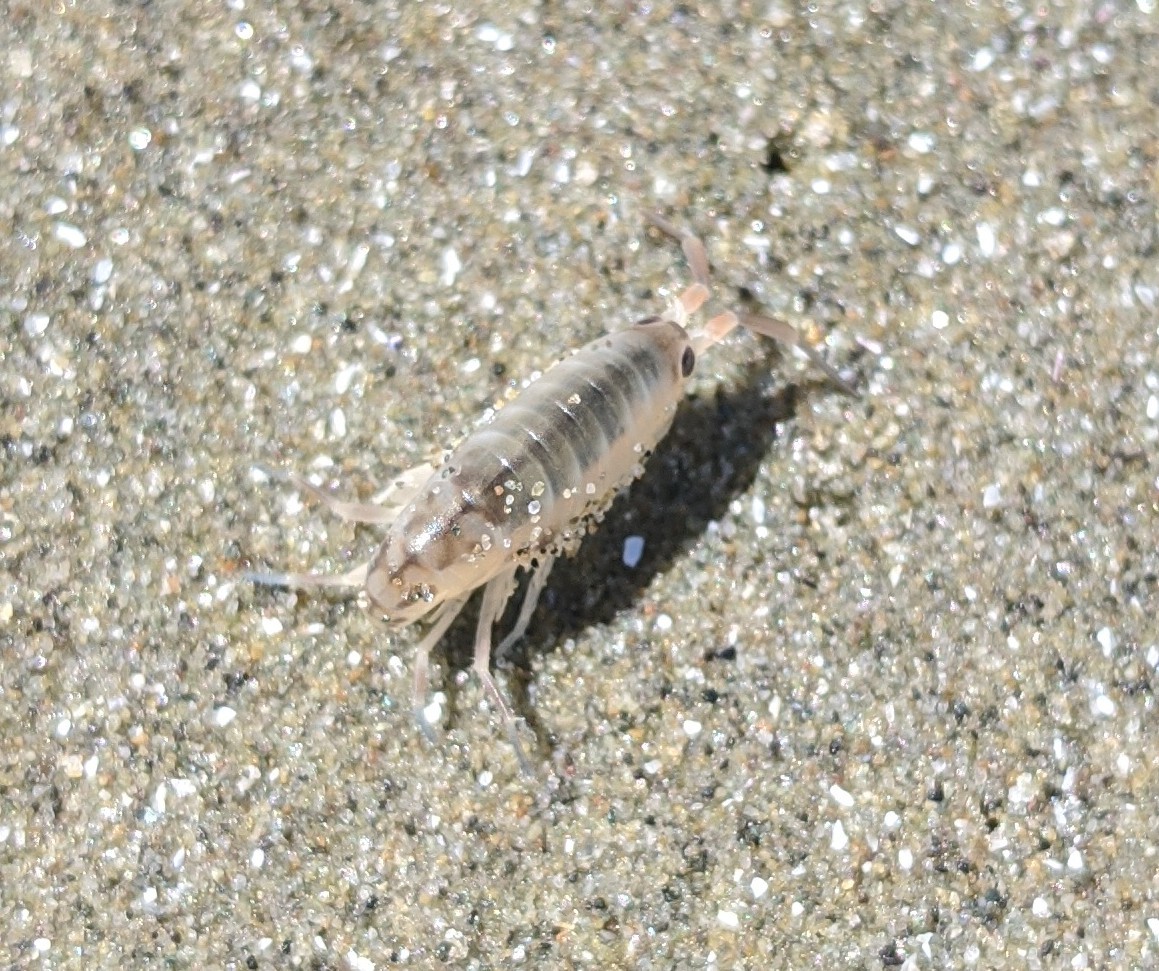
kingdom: Animalia
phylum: Arthropoda
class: Malacostraca
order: Amphipoda
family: Talitridae
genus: Megalorchestia
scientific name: Megalorchestia californiana
